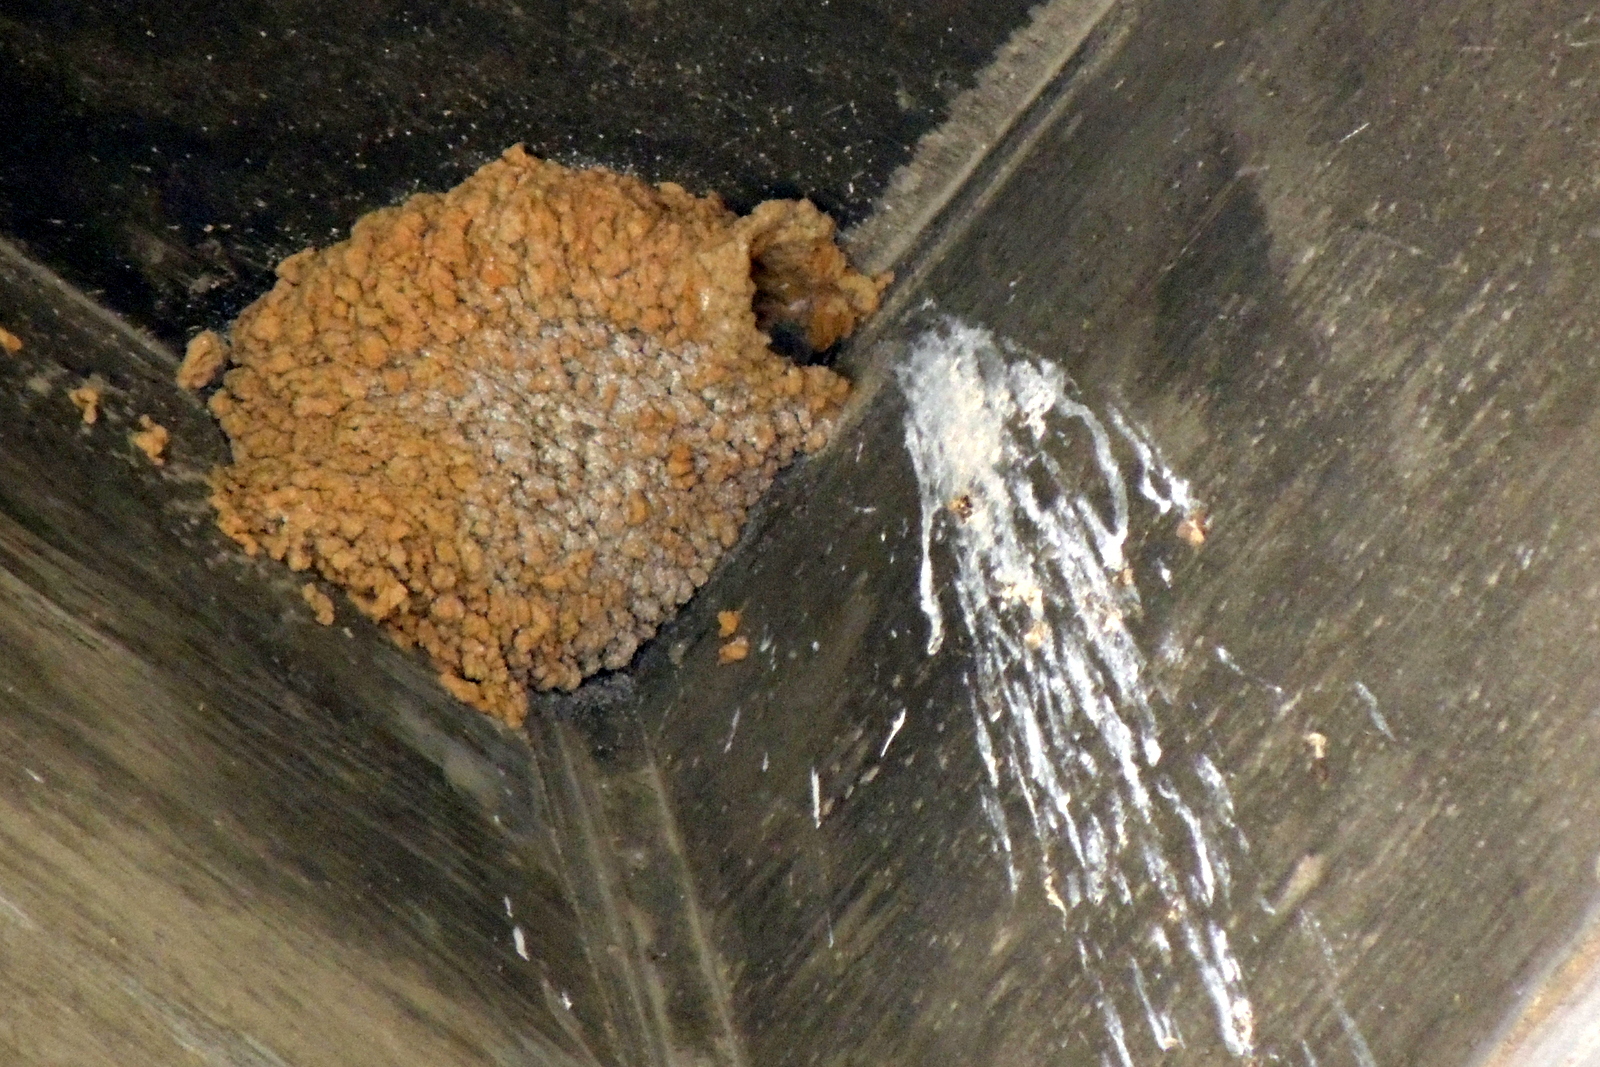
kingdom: Animalia
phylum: Chordata
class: Aves
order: Passeriformes
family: Hirundinidae
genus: Petrochelidon
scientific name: Petrochelidon pyrrhonota
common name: American cliff swallow
